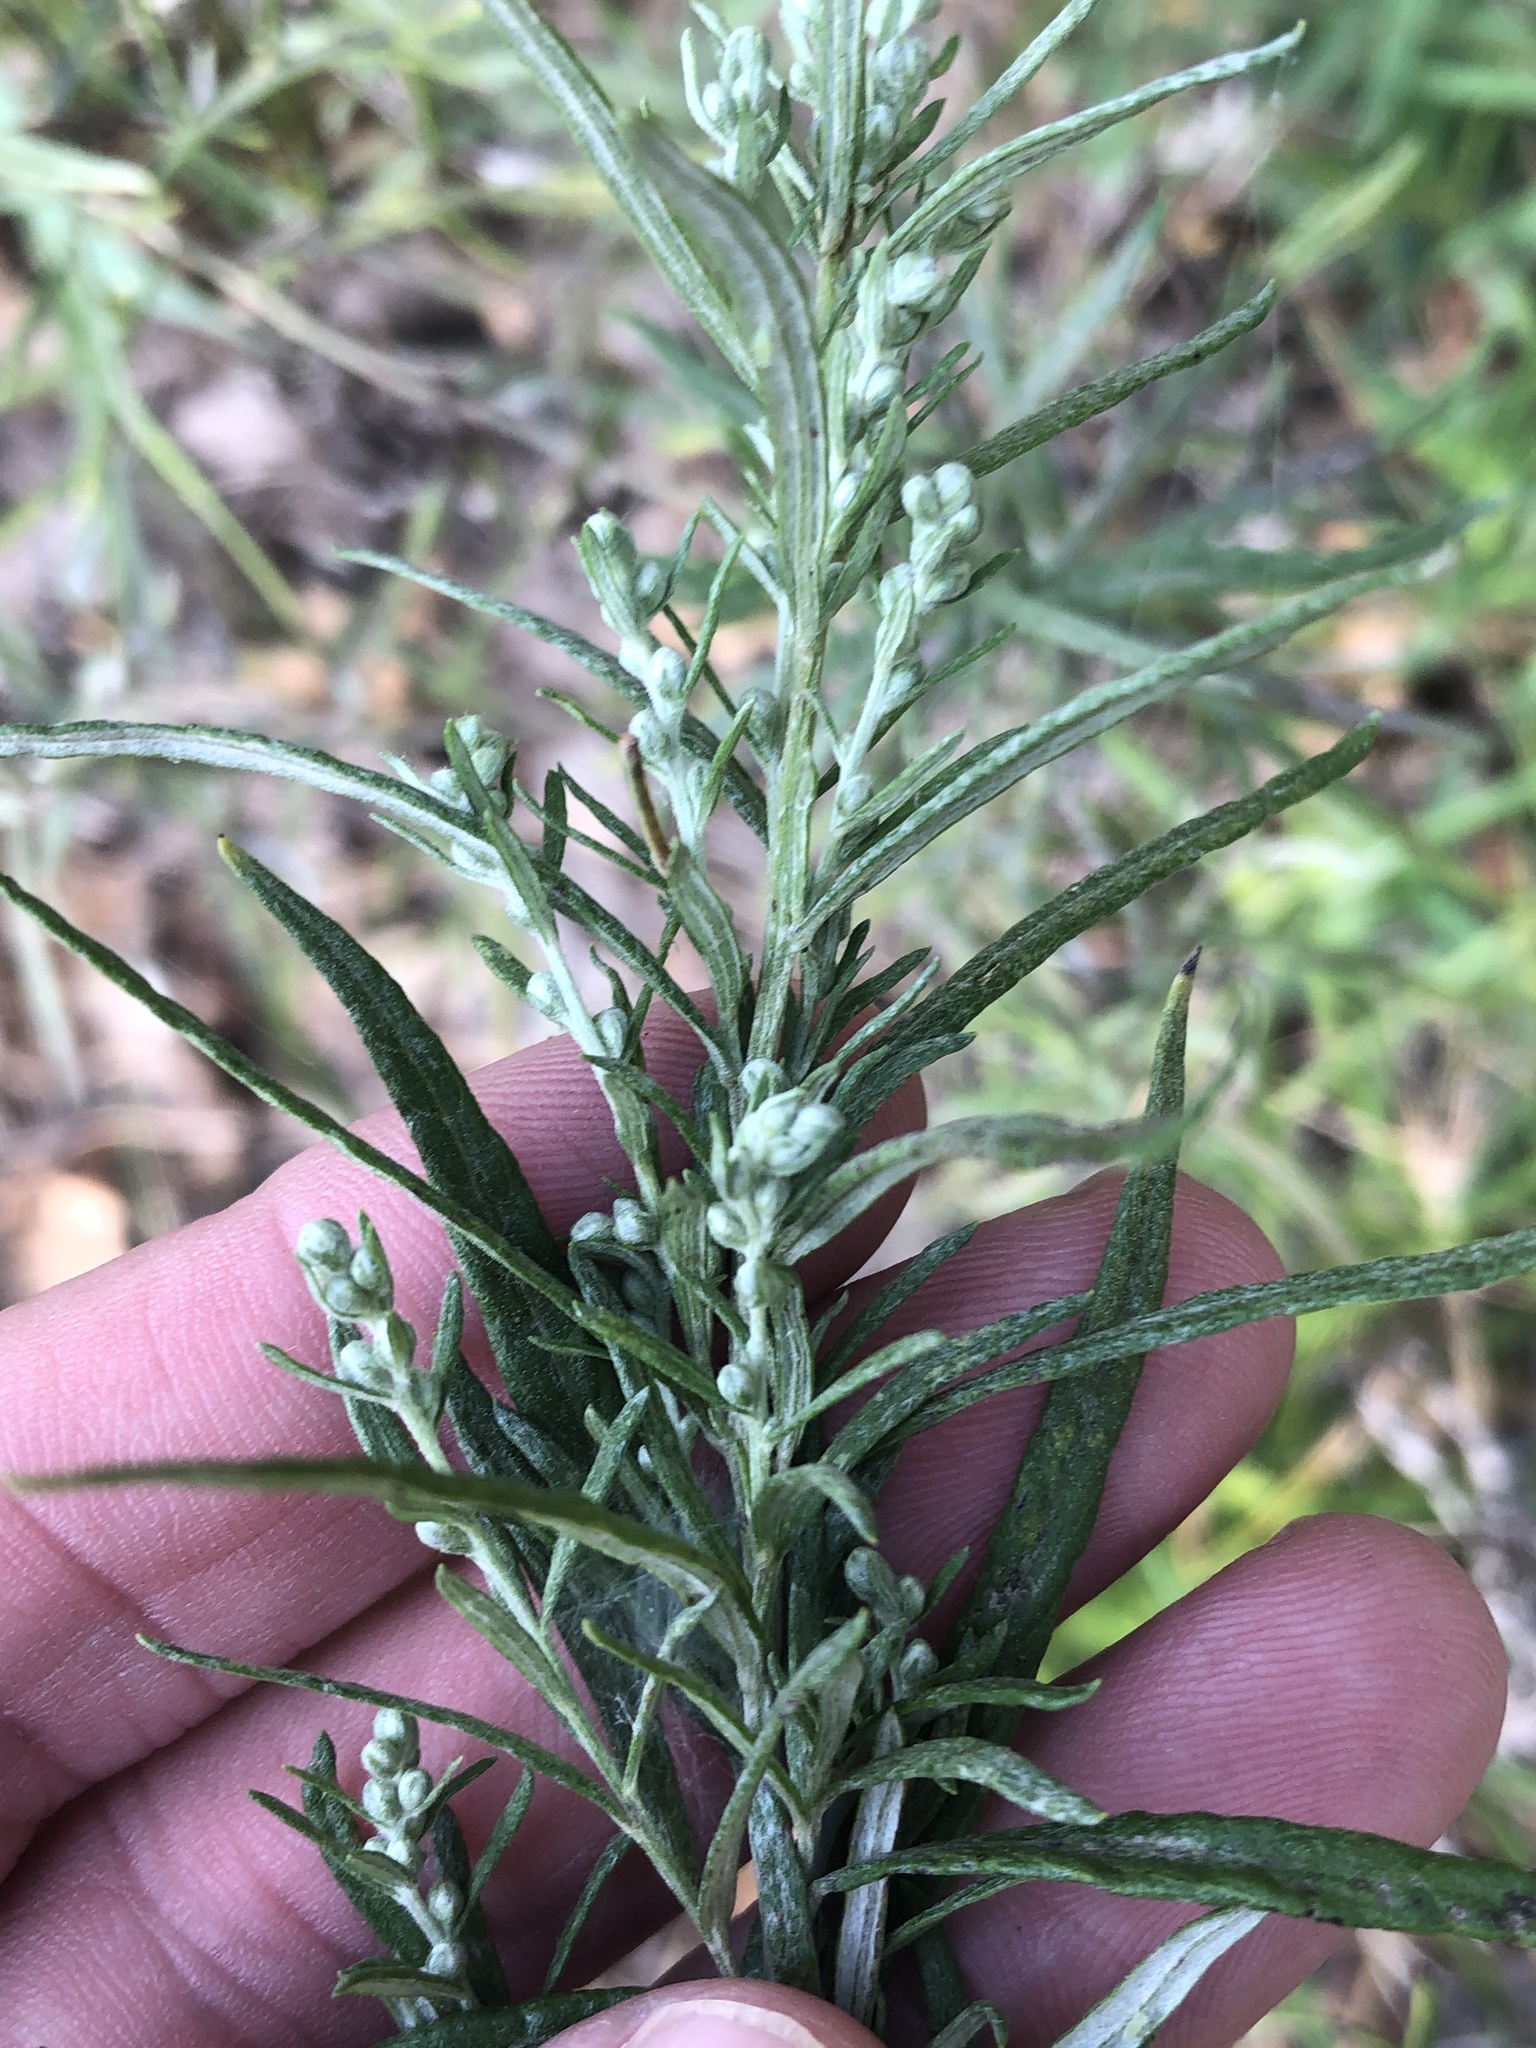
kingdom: Plantae
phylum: Tracheophyta
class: Magnoliopsida
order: Asterales
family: Asteraceae
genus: Artemisia
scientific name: Artemisia ludoviciana
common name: Western mugwort
